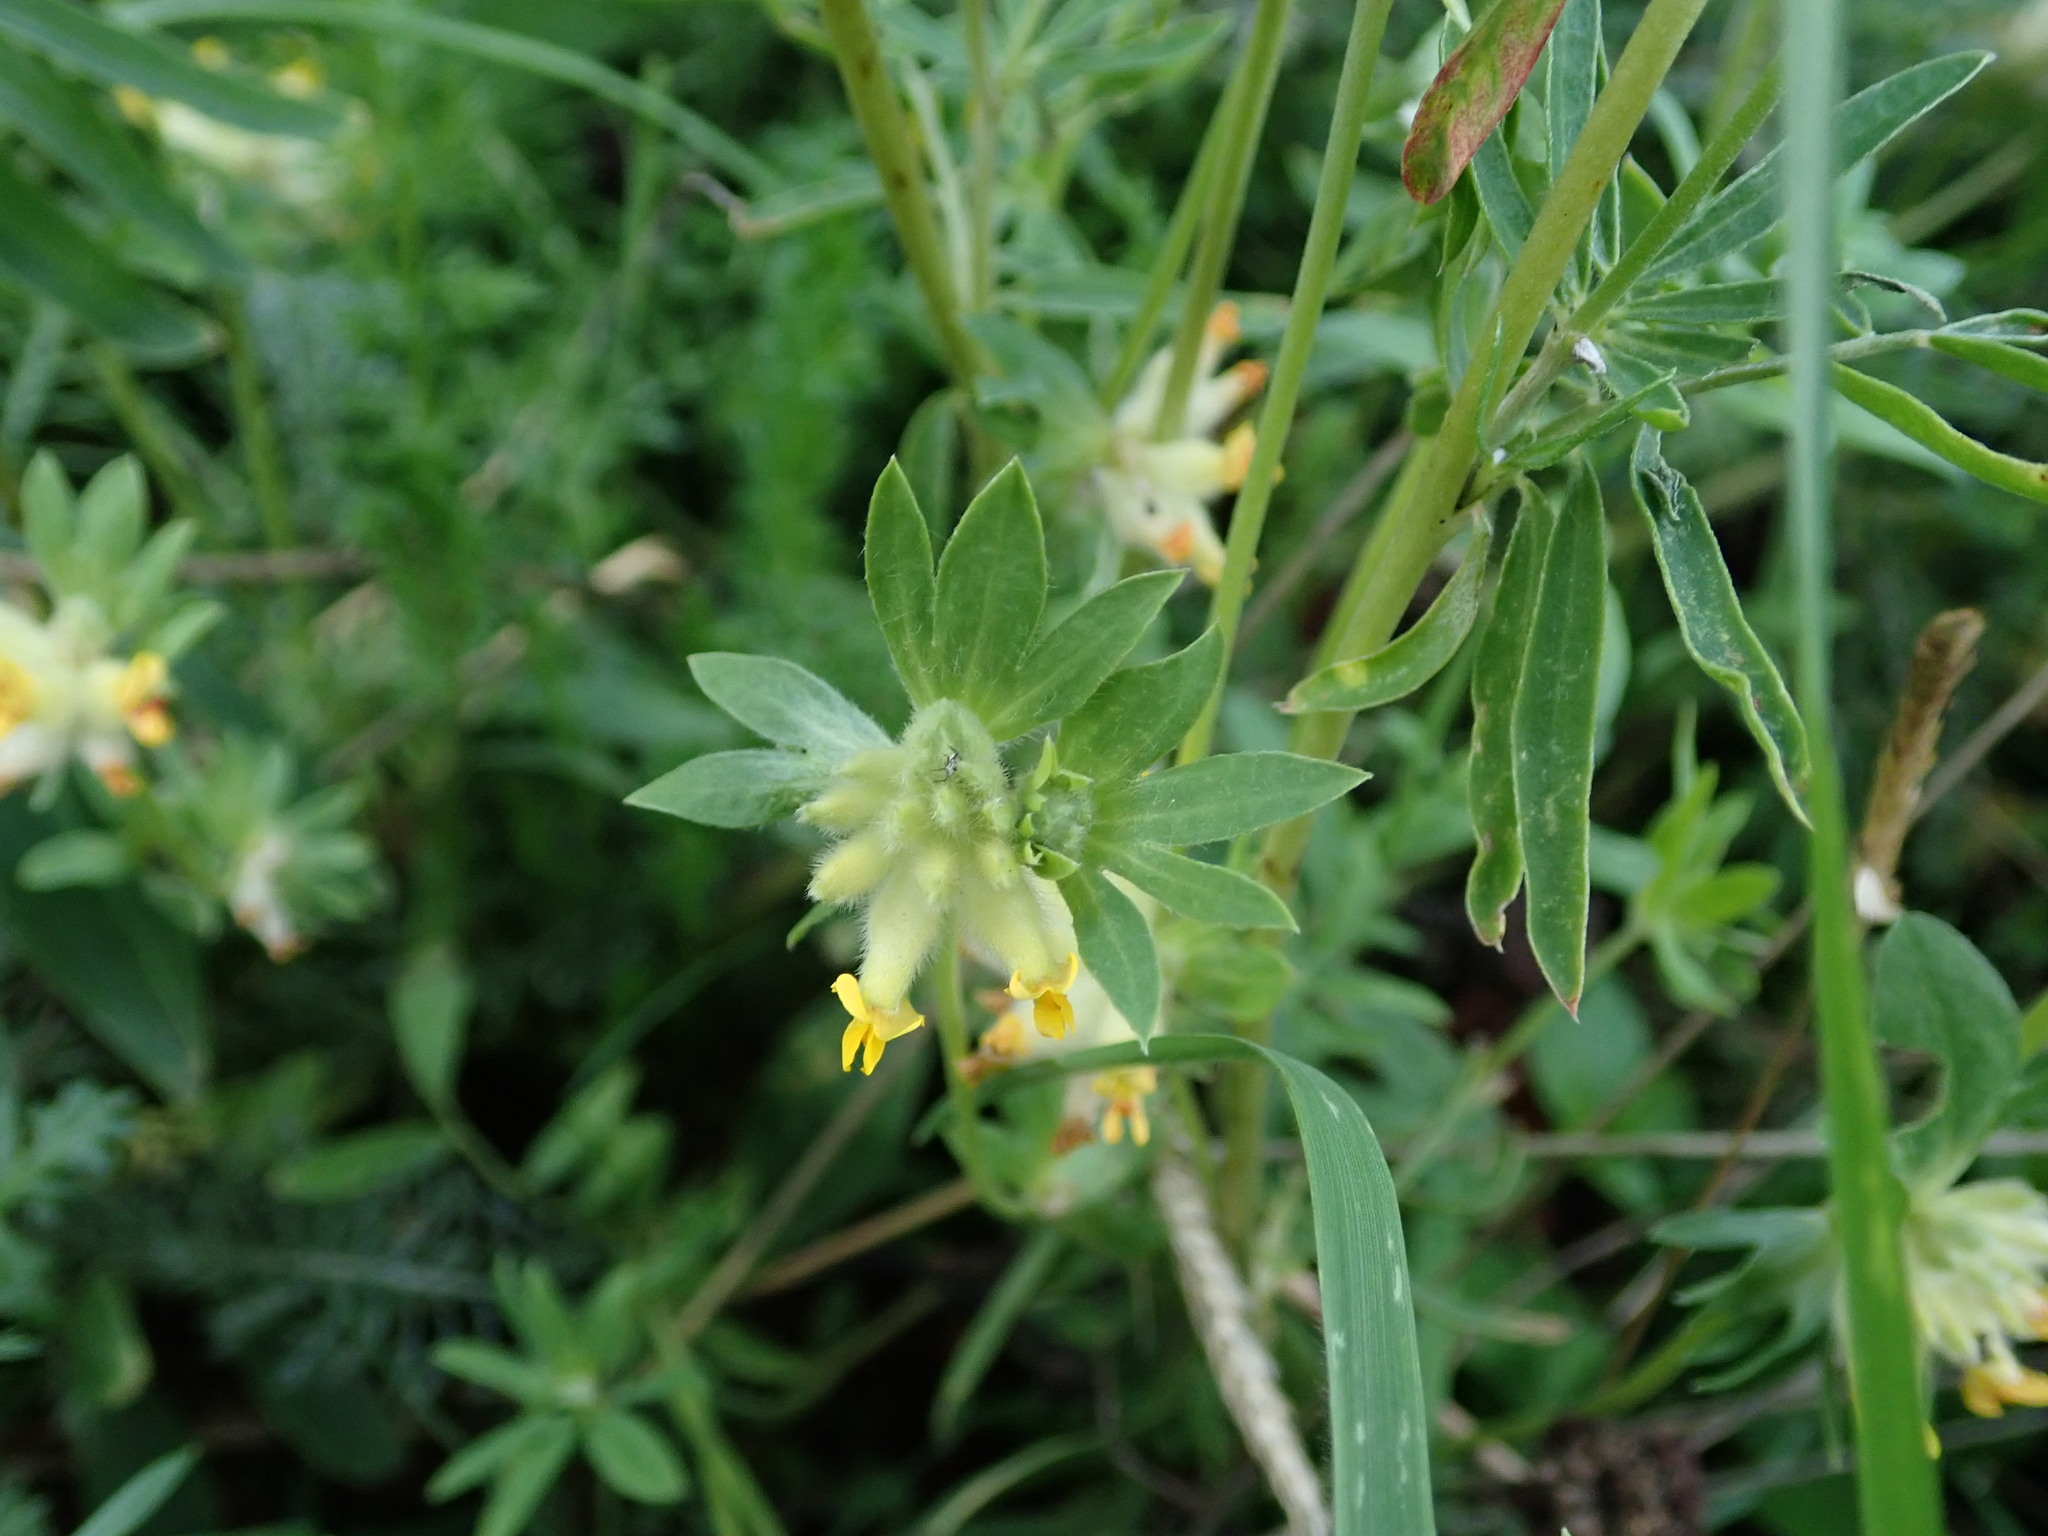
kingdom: Plantae
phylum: Tracheophyta
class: Magnoliopsida
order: Fabales
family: Fabaceae
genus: Anthyllis
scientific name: Anthyllis vulneraria
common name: Kidney vetch
